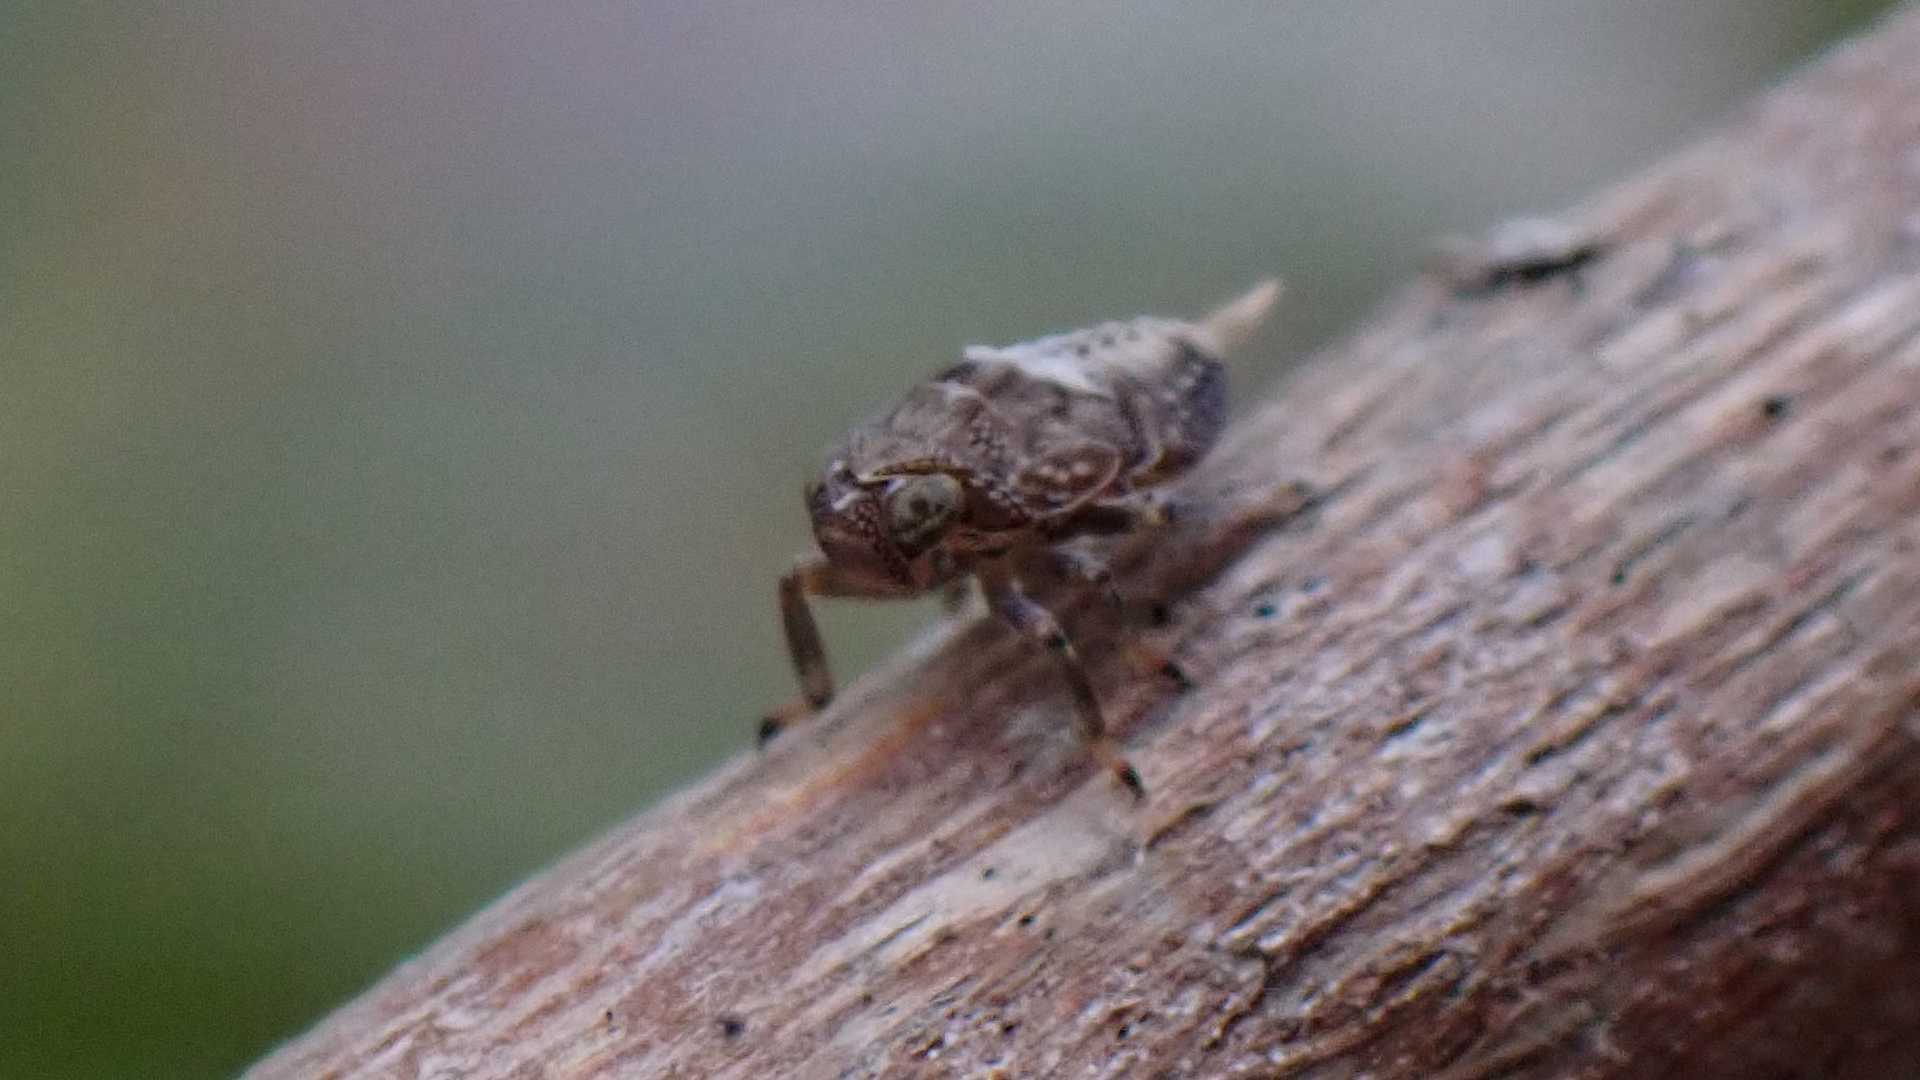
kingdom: Animalia
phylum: Arthropoda
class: Insecta
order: Hemiptera
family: Issidae
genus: Issus
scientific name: Issus coleoptratus
